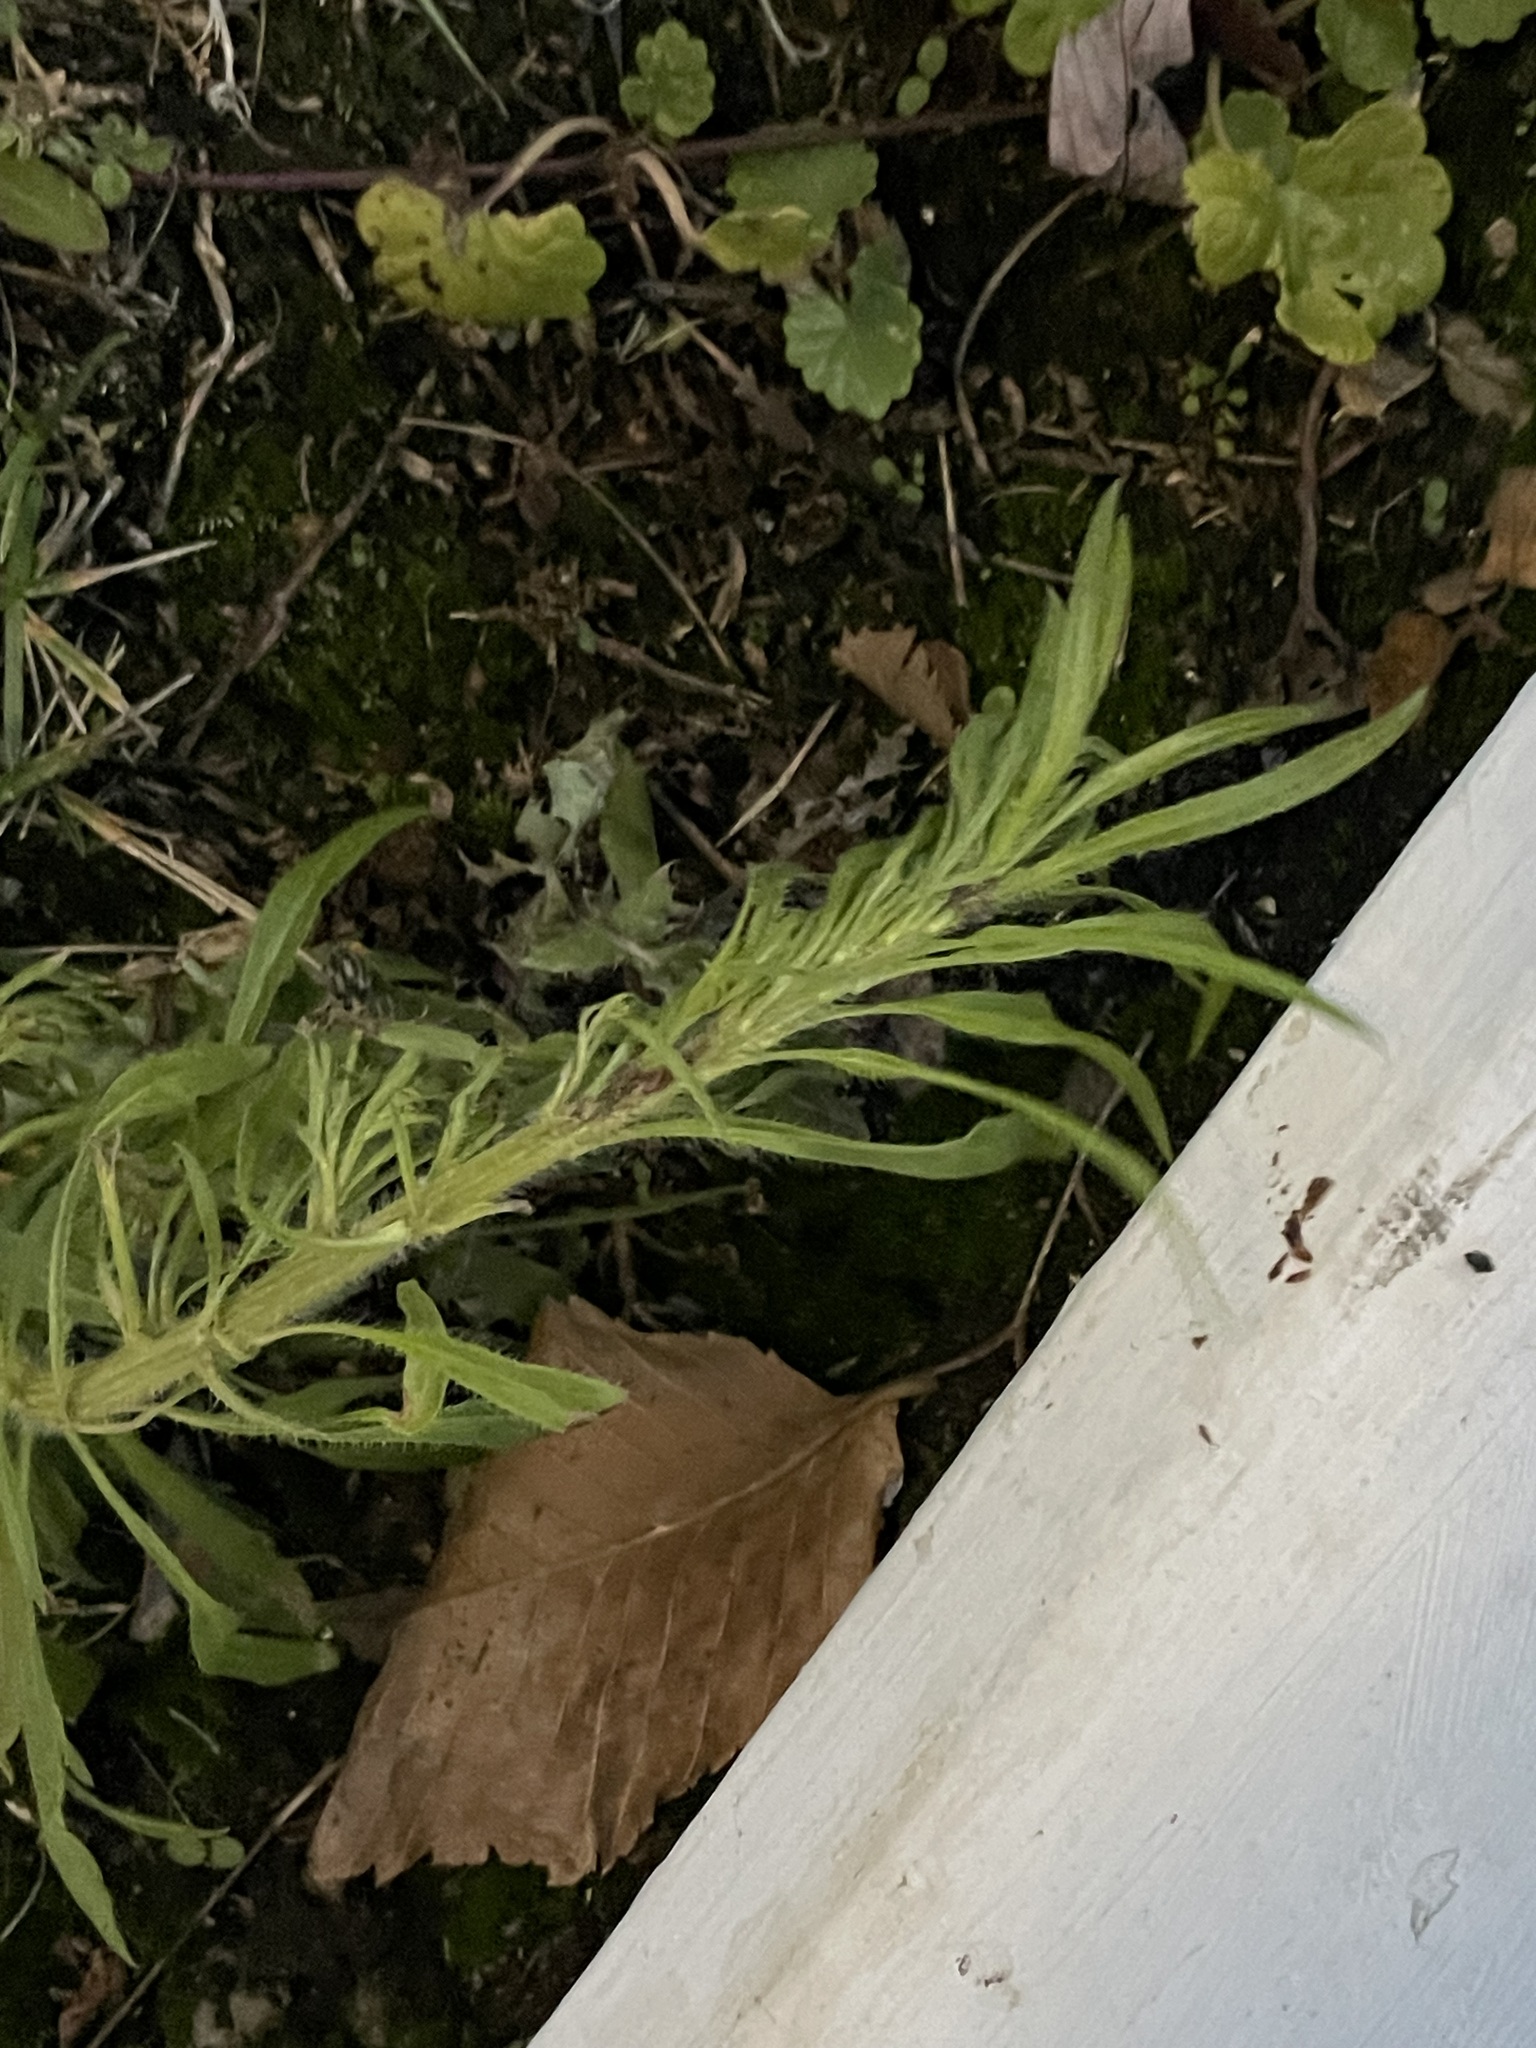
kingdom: Plantae
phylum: Tracheophyta
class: Magnoliopsida
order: Asterales
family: Asteraceae
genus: Erigeron
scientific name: Erigeron canadensis
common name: Canadian fleabane
